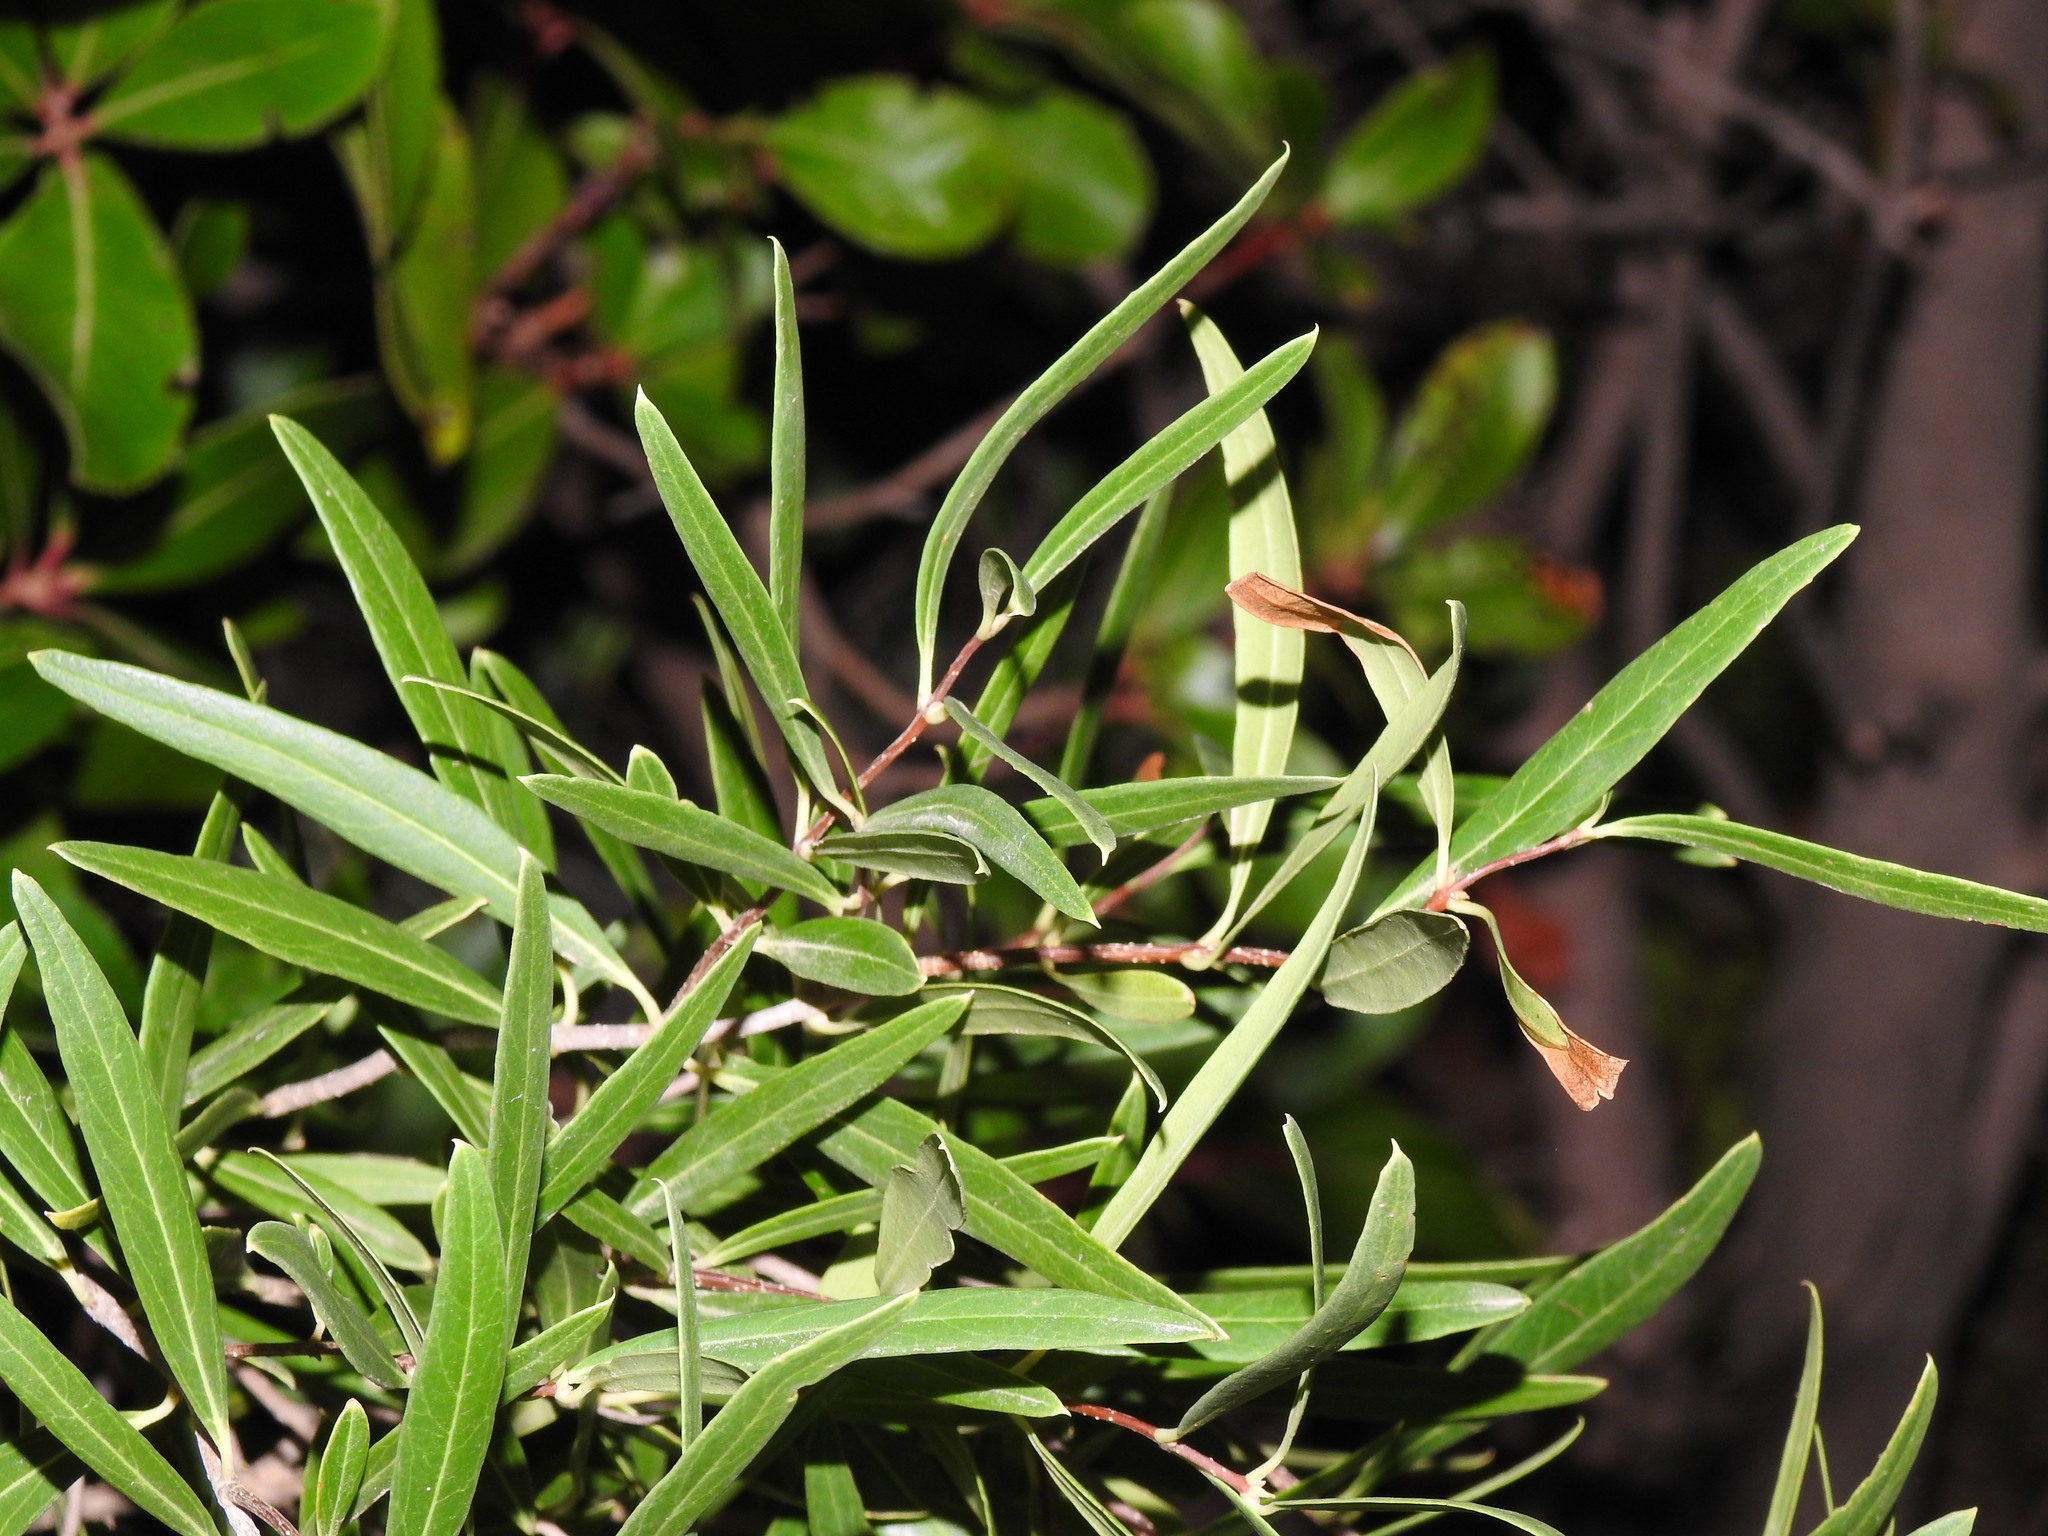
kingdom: Plantae
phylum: Tracheophyta
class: Magnoliopsida
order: Lamiales
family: Oleaceae
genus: Phillyrea
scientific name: Phillyrea angustifolia
